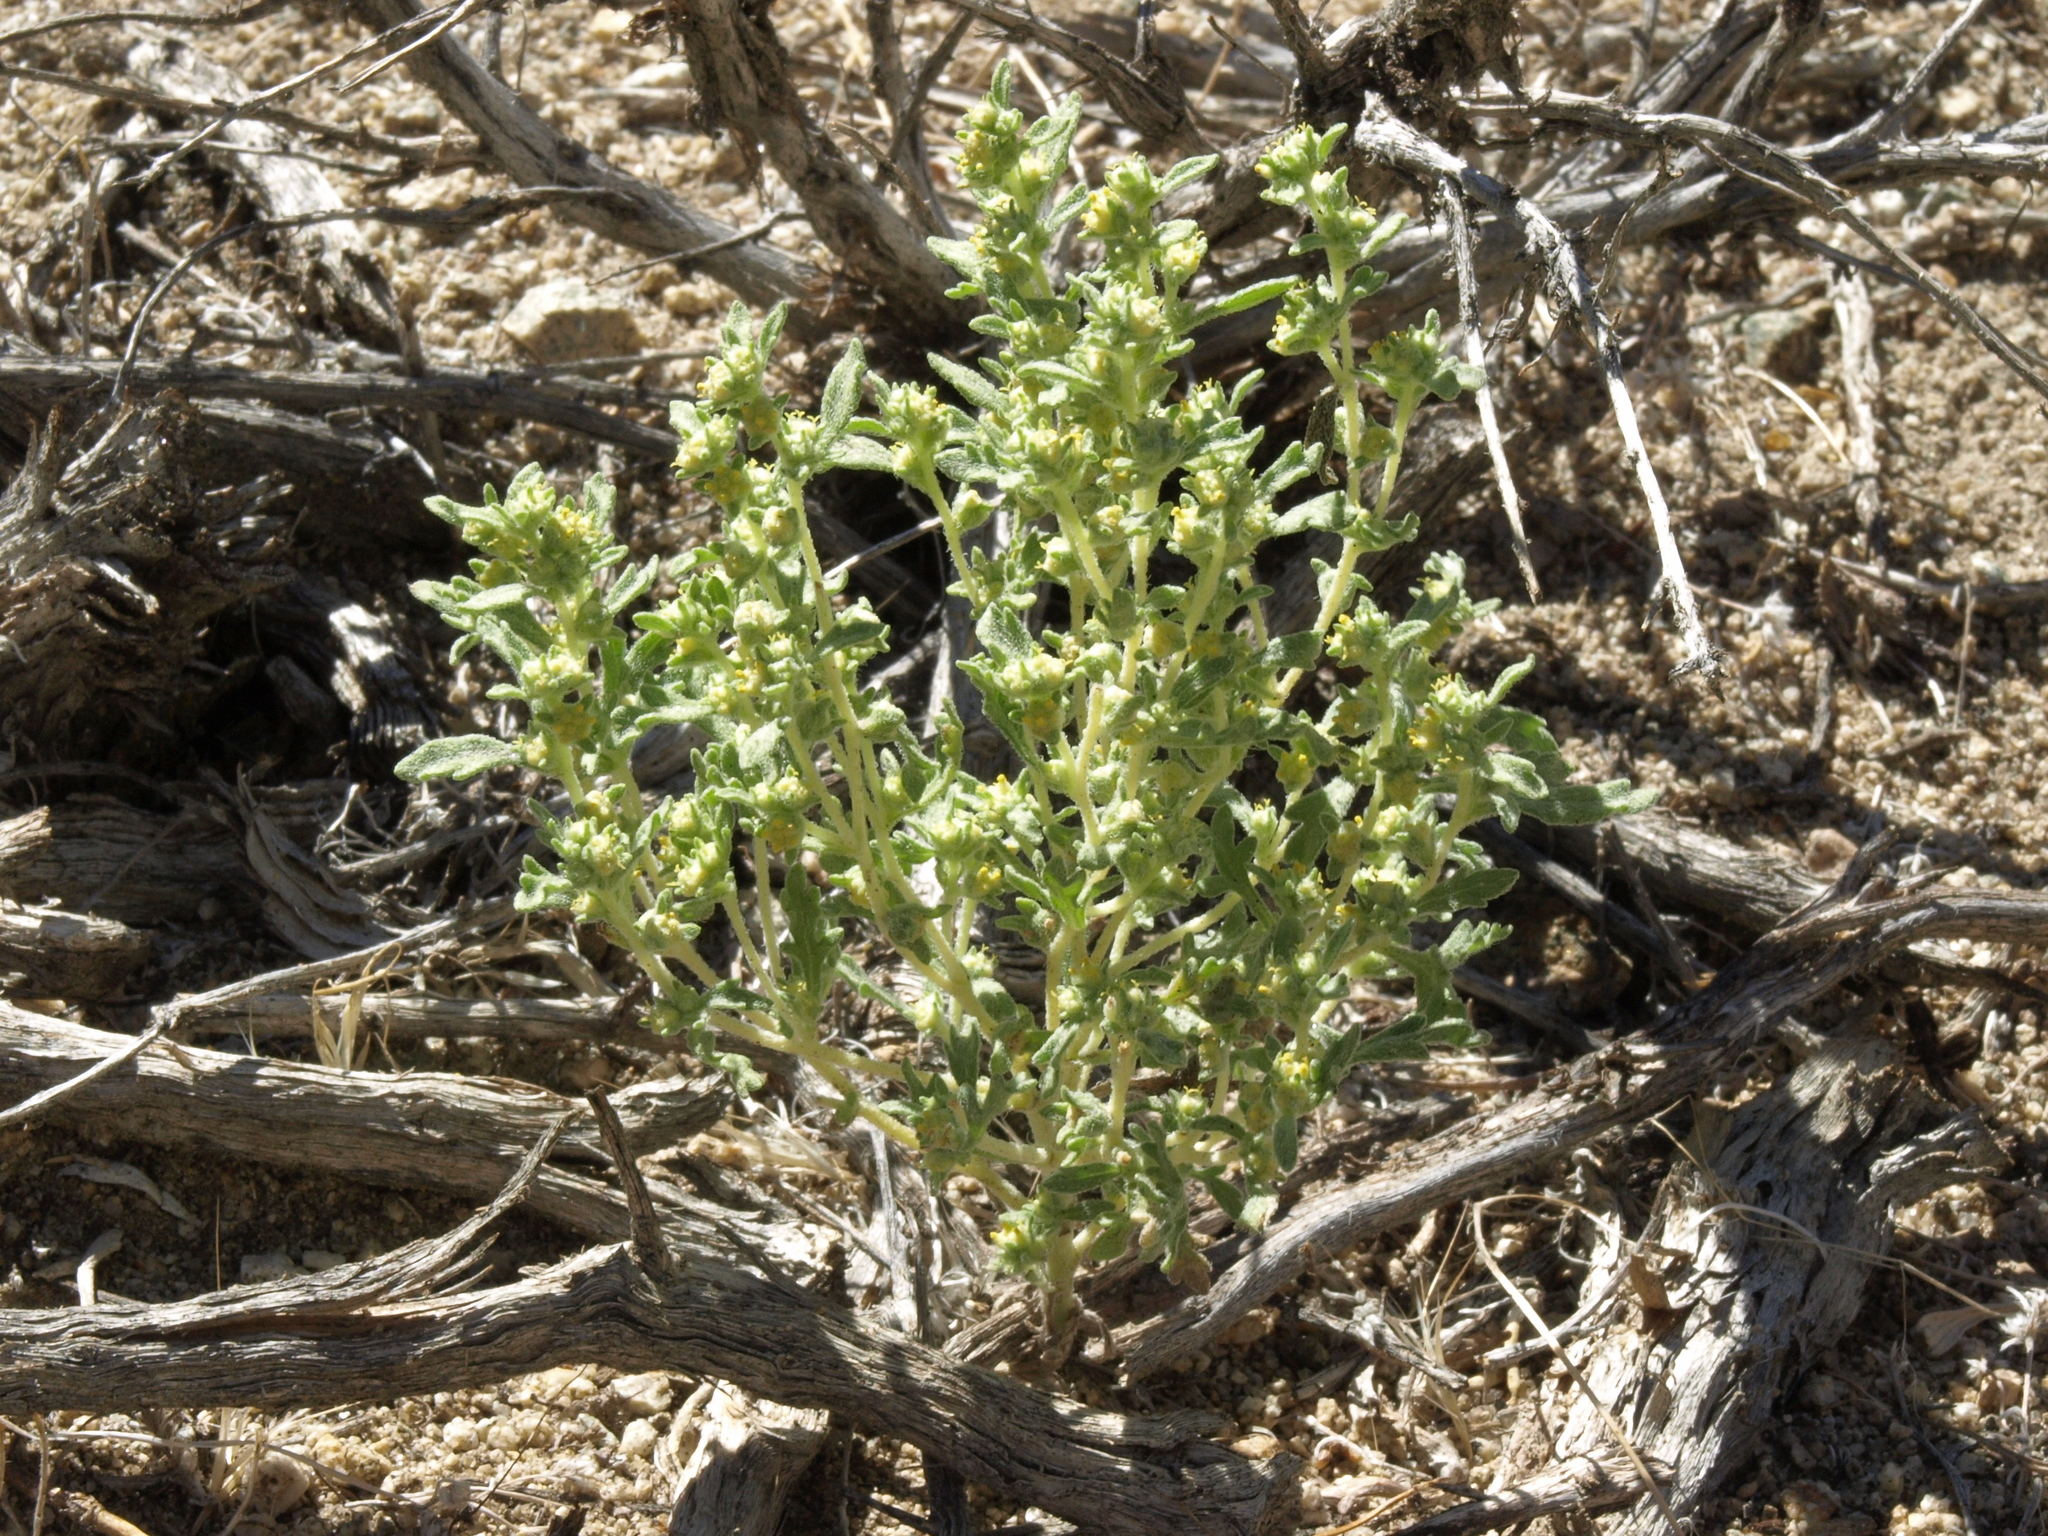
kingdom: Plantae
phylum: Tracheophyta
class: Magnoliopsida
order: Asterales
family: Asteraceae
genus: Euphrosyne
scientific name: Euphrosyne nevadensis
